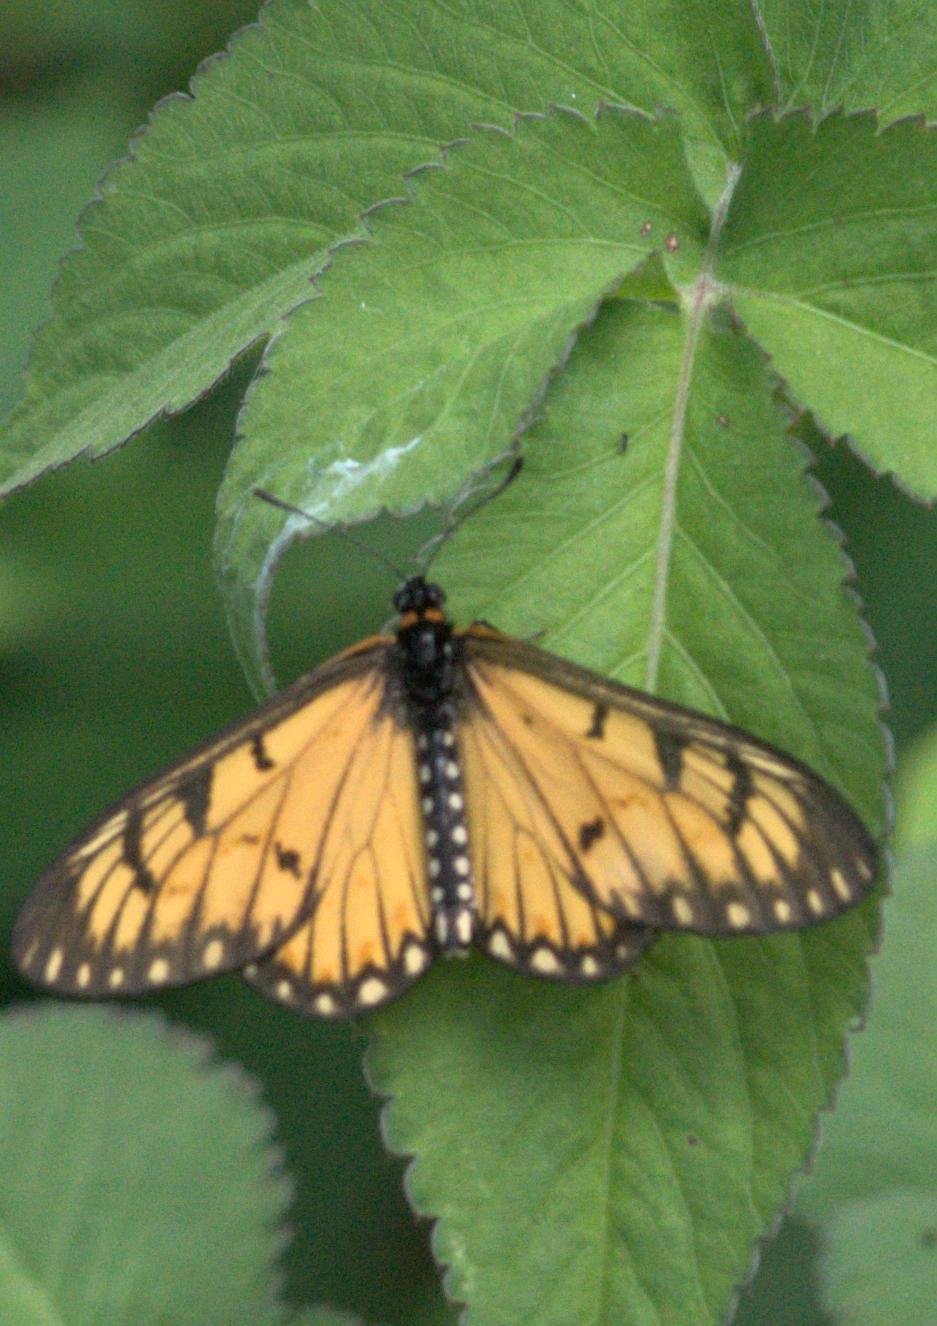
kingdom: Animalia
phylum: Arthropoda
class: Insecta
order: Lepidoptera
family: Nymphalidae
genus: Acraea
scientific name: Acraea Telchinia issoria
